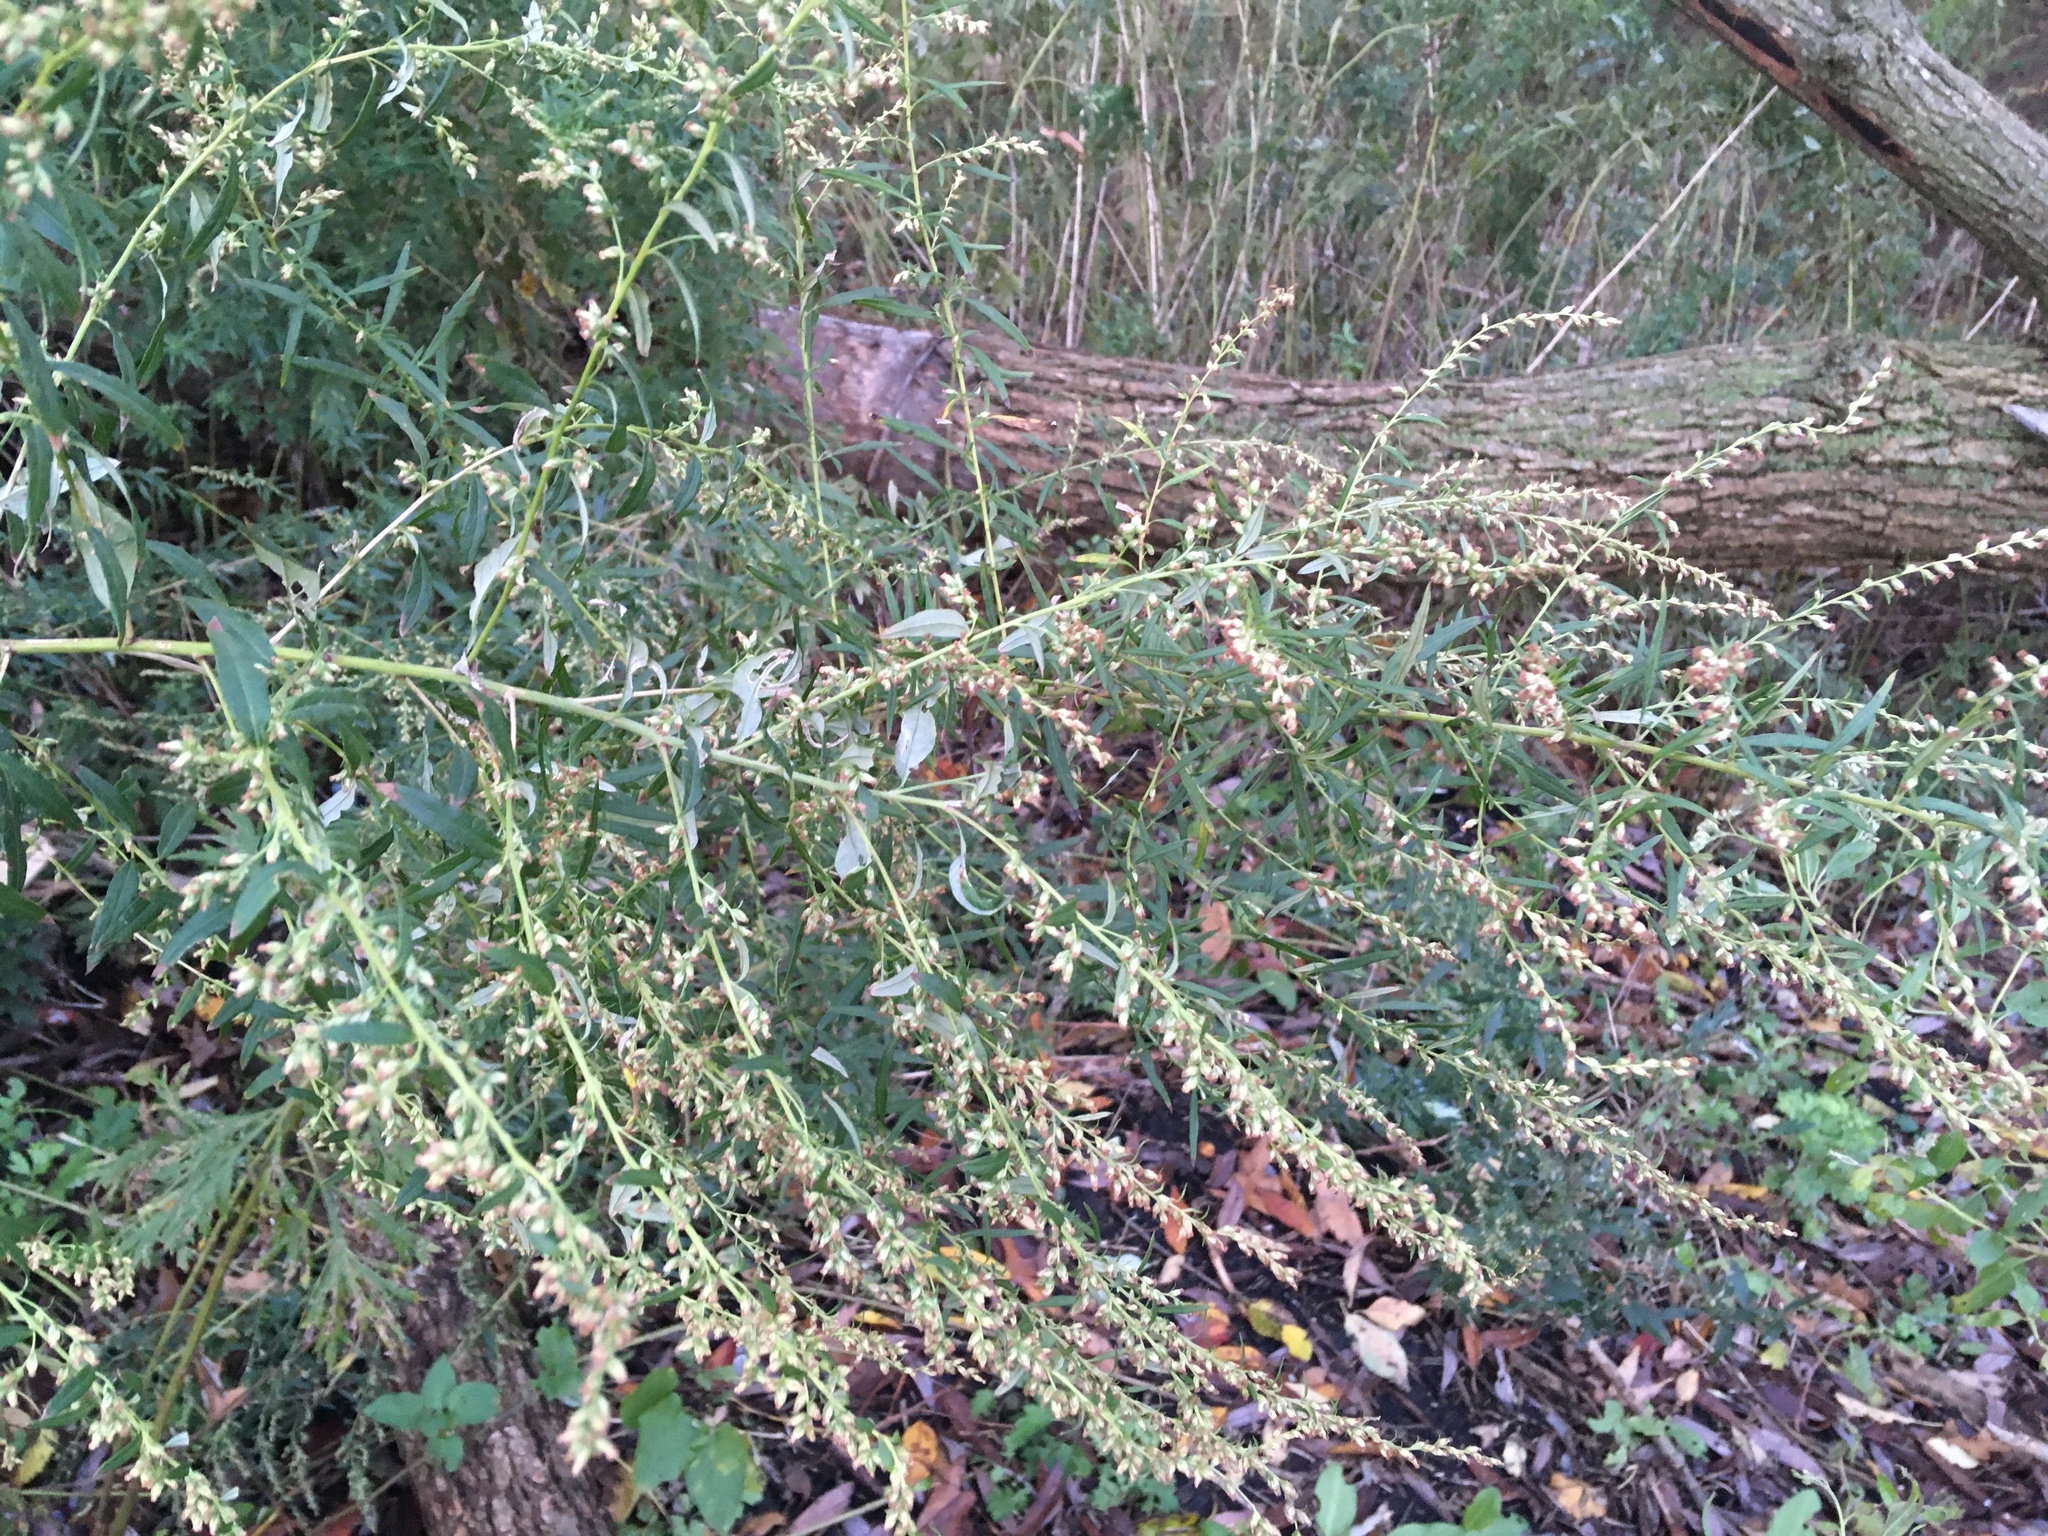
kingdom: Plantae
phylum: Tracheophyta
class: Magnoliopsida
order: Asterales
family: Asteraceae
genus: Artemisia
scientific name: Artemisia vulgaris
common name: Mugwort
